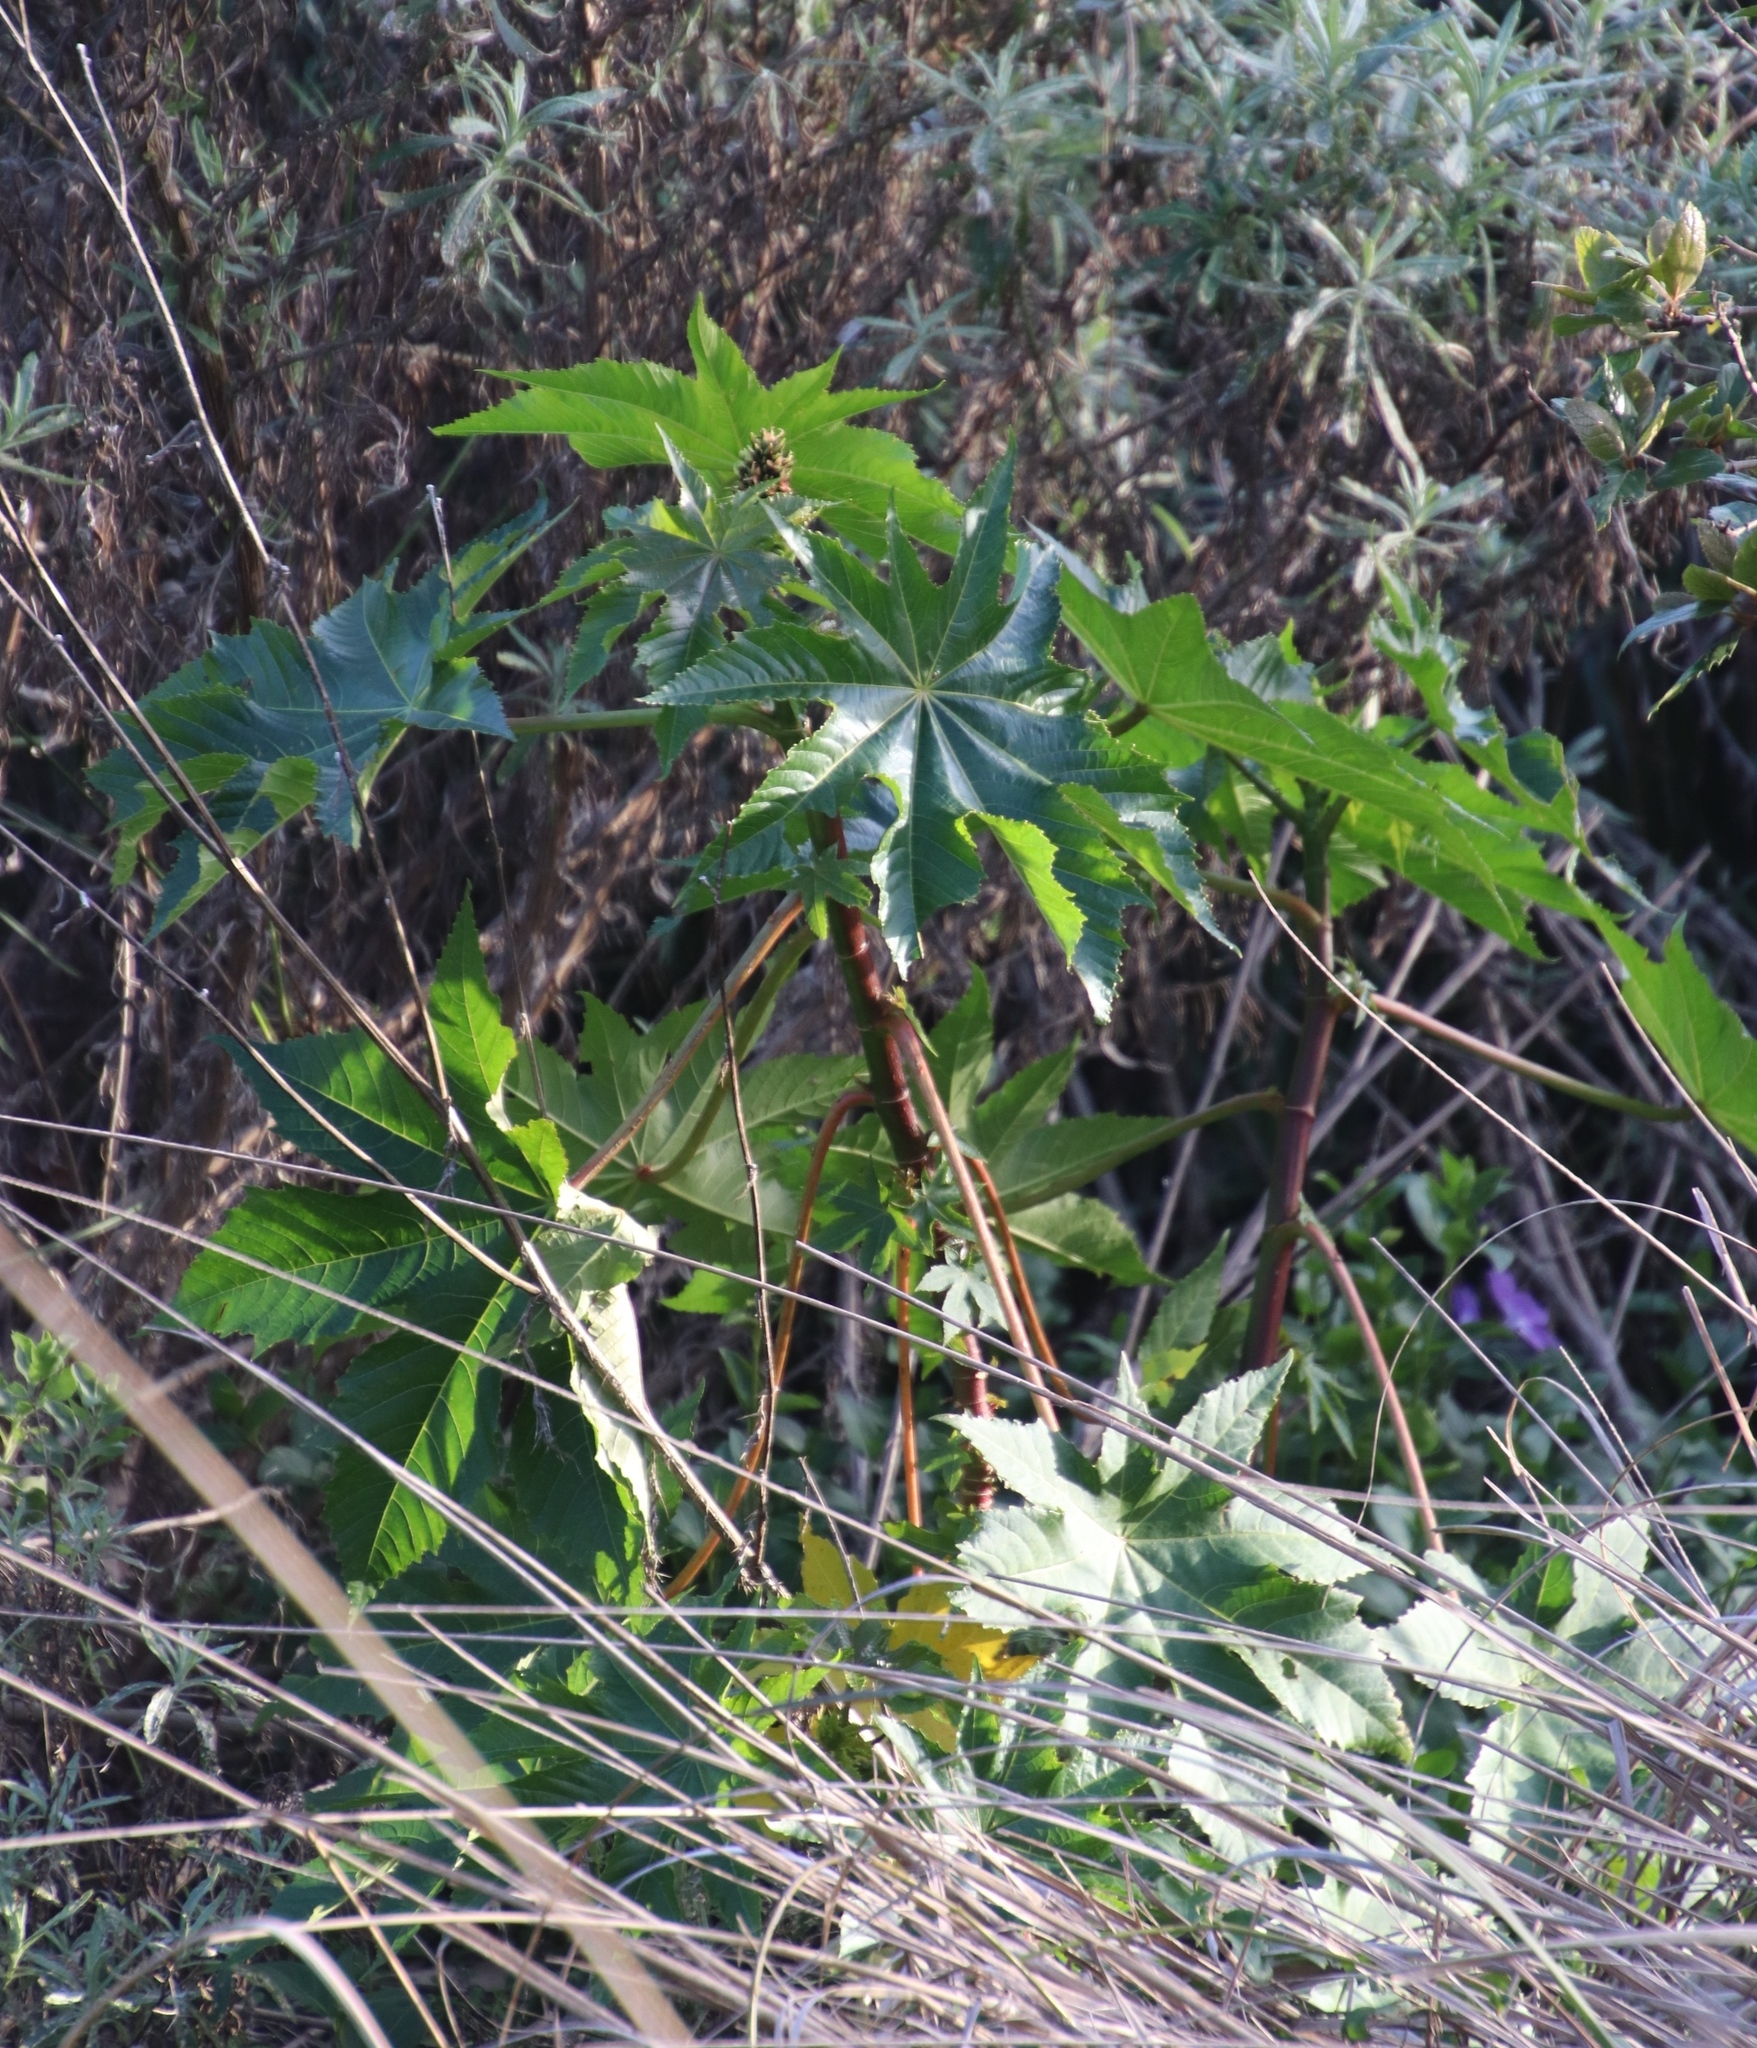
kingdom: Plantae
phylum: Tracheophyta
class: Magnoliopsida
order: Malpighiales
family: Euphorbiaceae
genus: Ricinus
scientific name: Ricinus communis
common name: Castor-oil-plant
